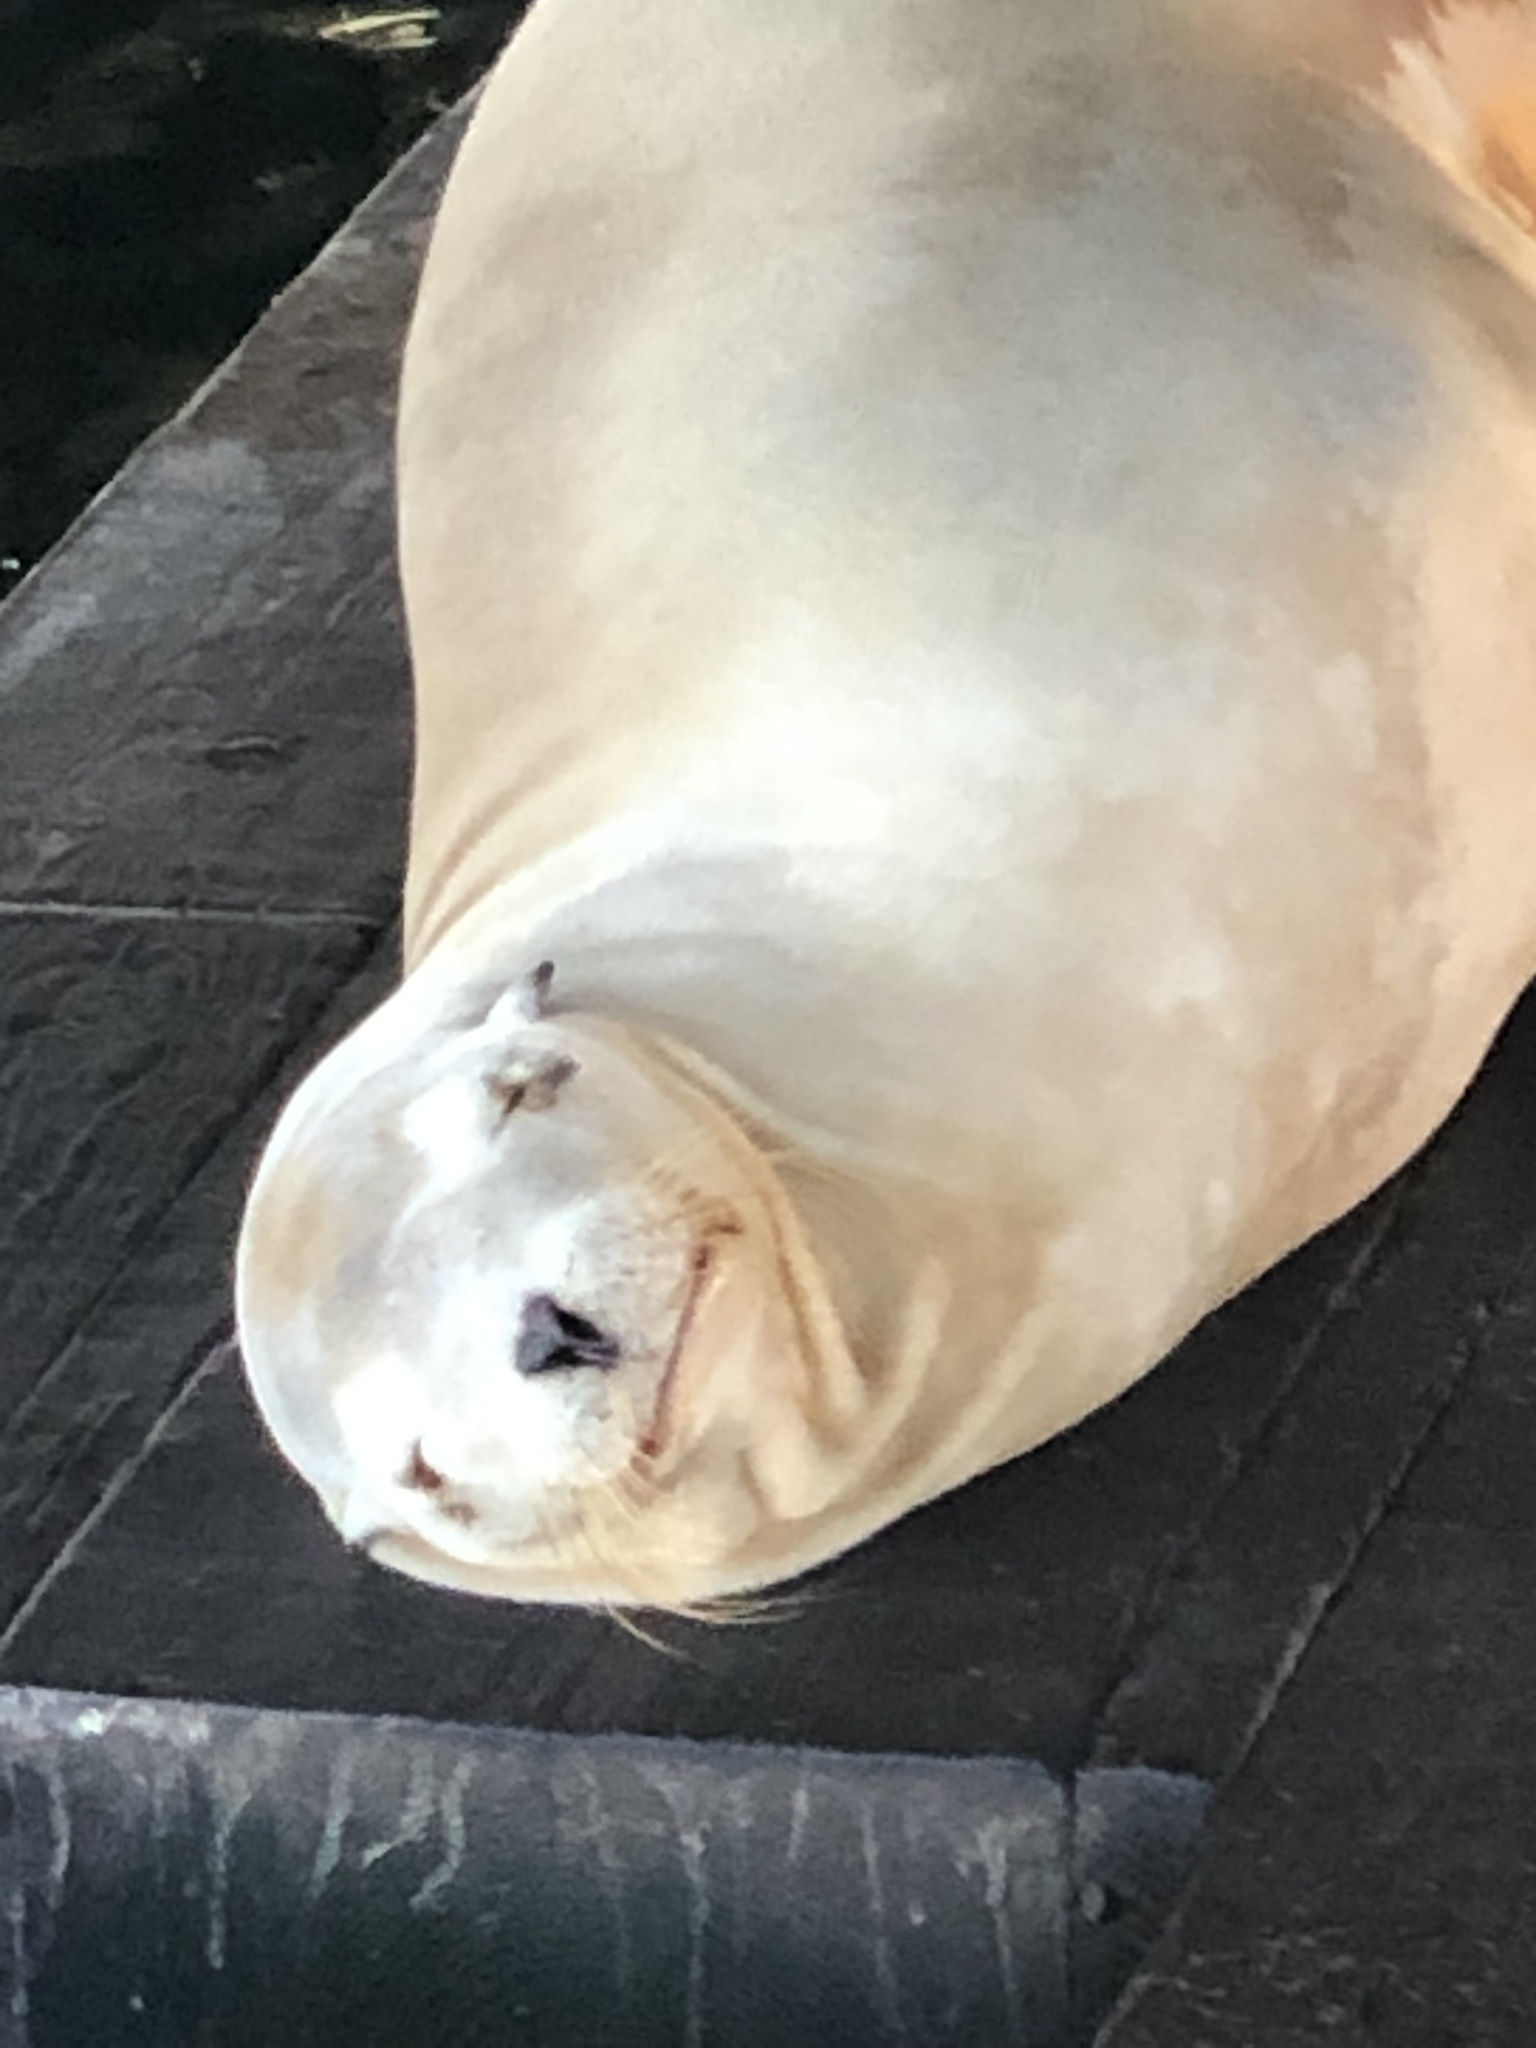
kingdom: Animalia
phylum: Chordata
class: Mammalia
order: Carnivora
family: Otariidae
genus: Zalophus
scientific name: Zalophus californianus
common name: California sea lion
